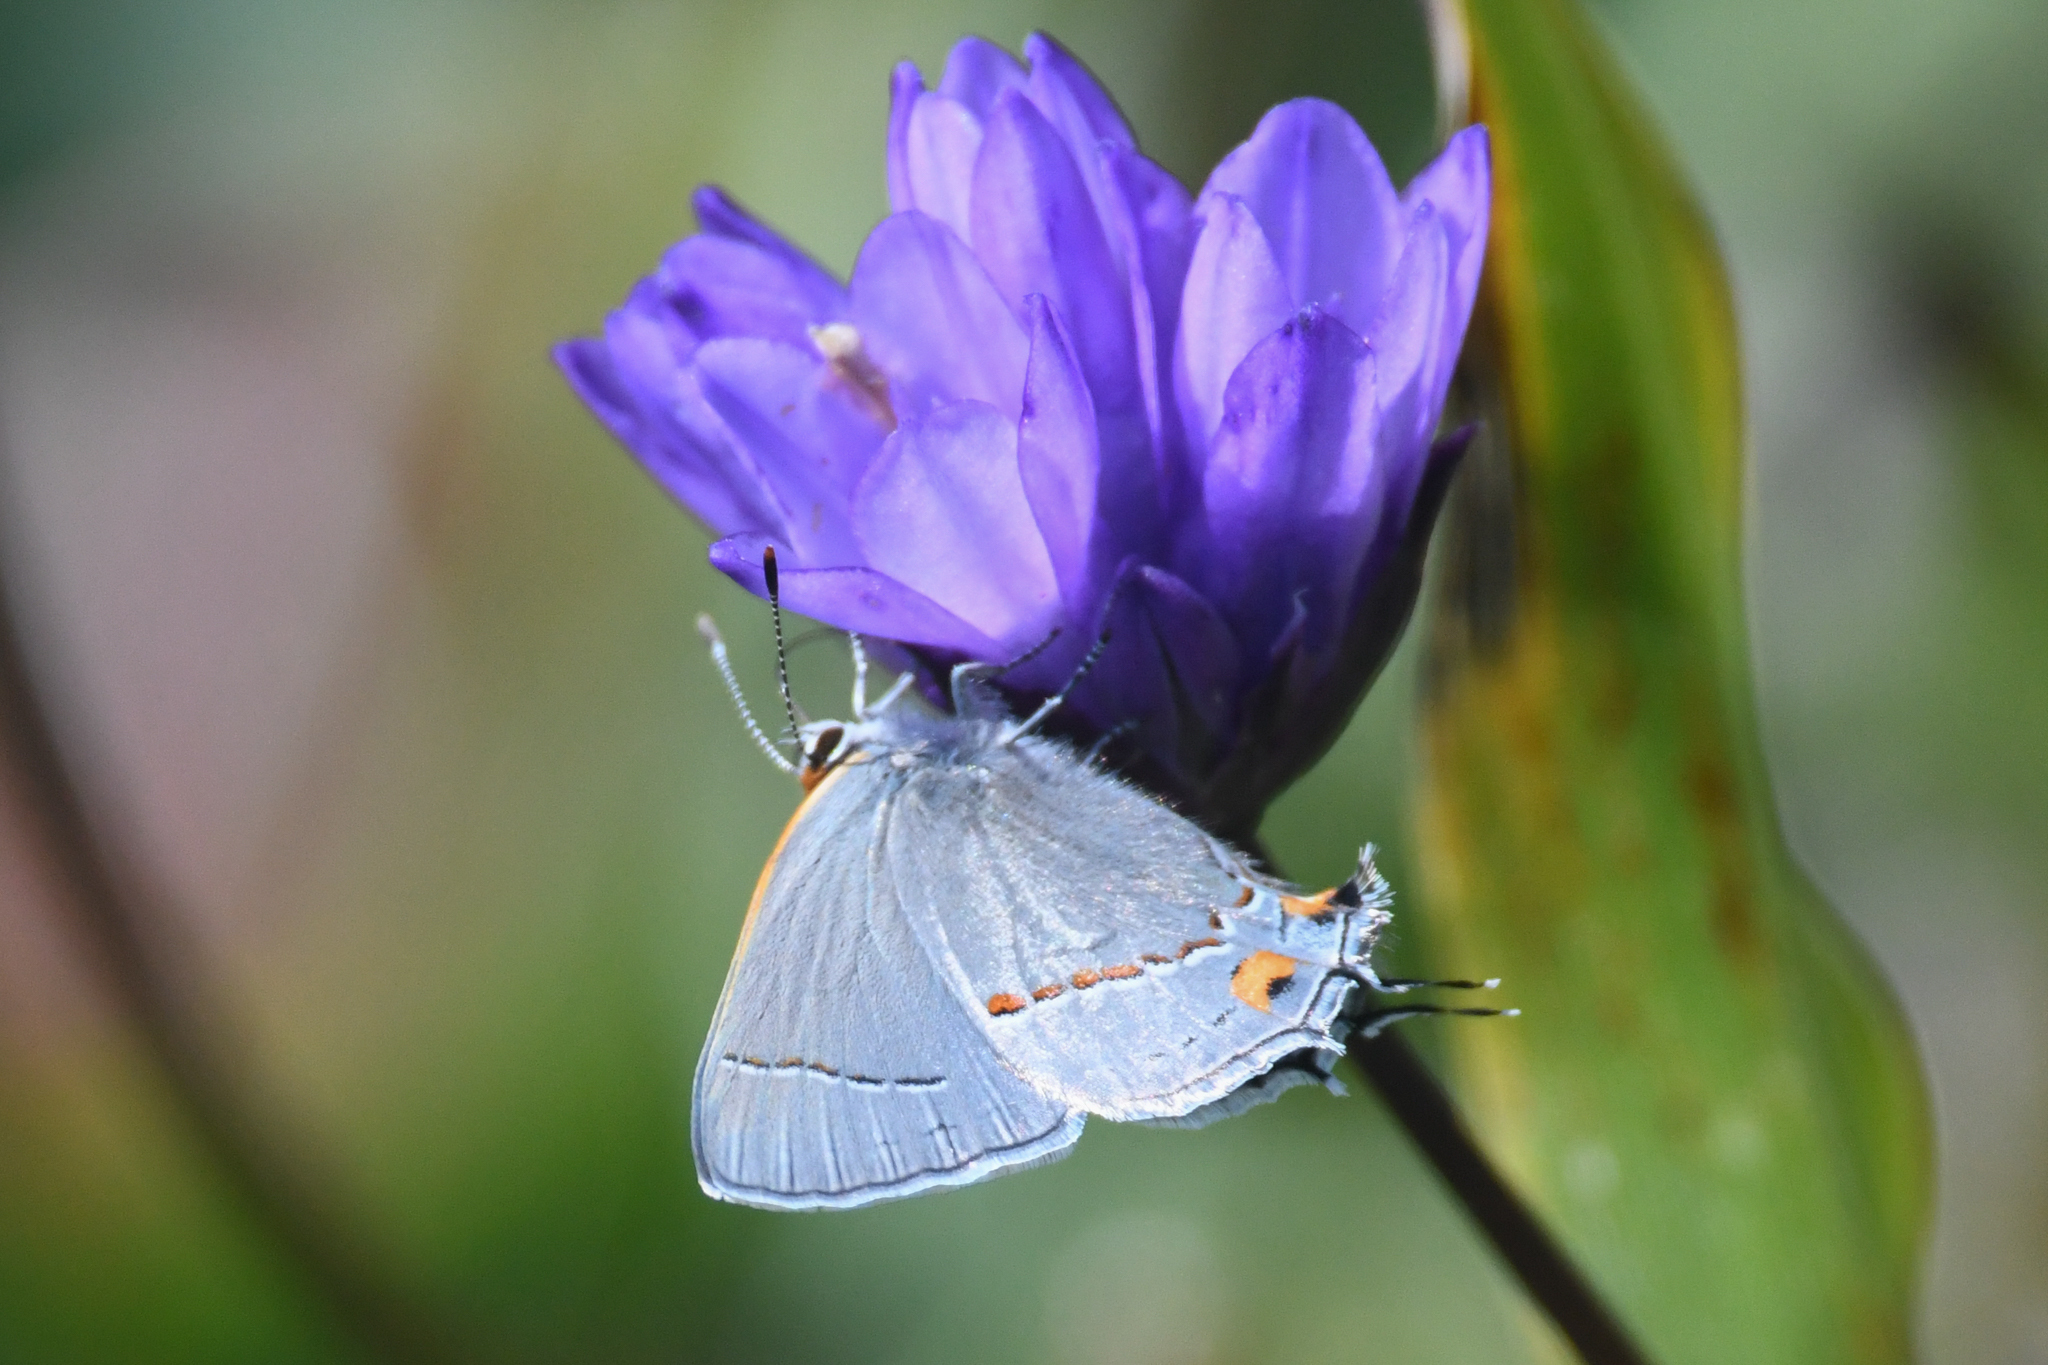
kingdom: Animalia
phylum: Arthropoda
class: Insecta
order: Lepidoptera
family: Lycaenidae
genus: Strymon
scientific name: Strymon melinus
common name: Gray hairstreak
